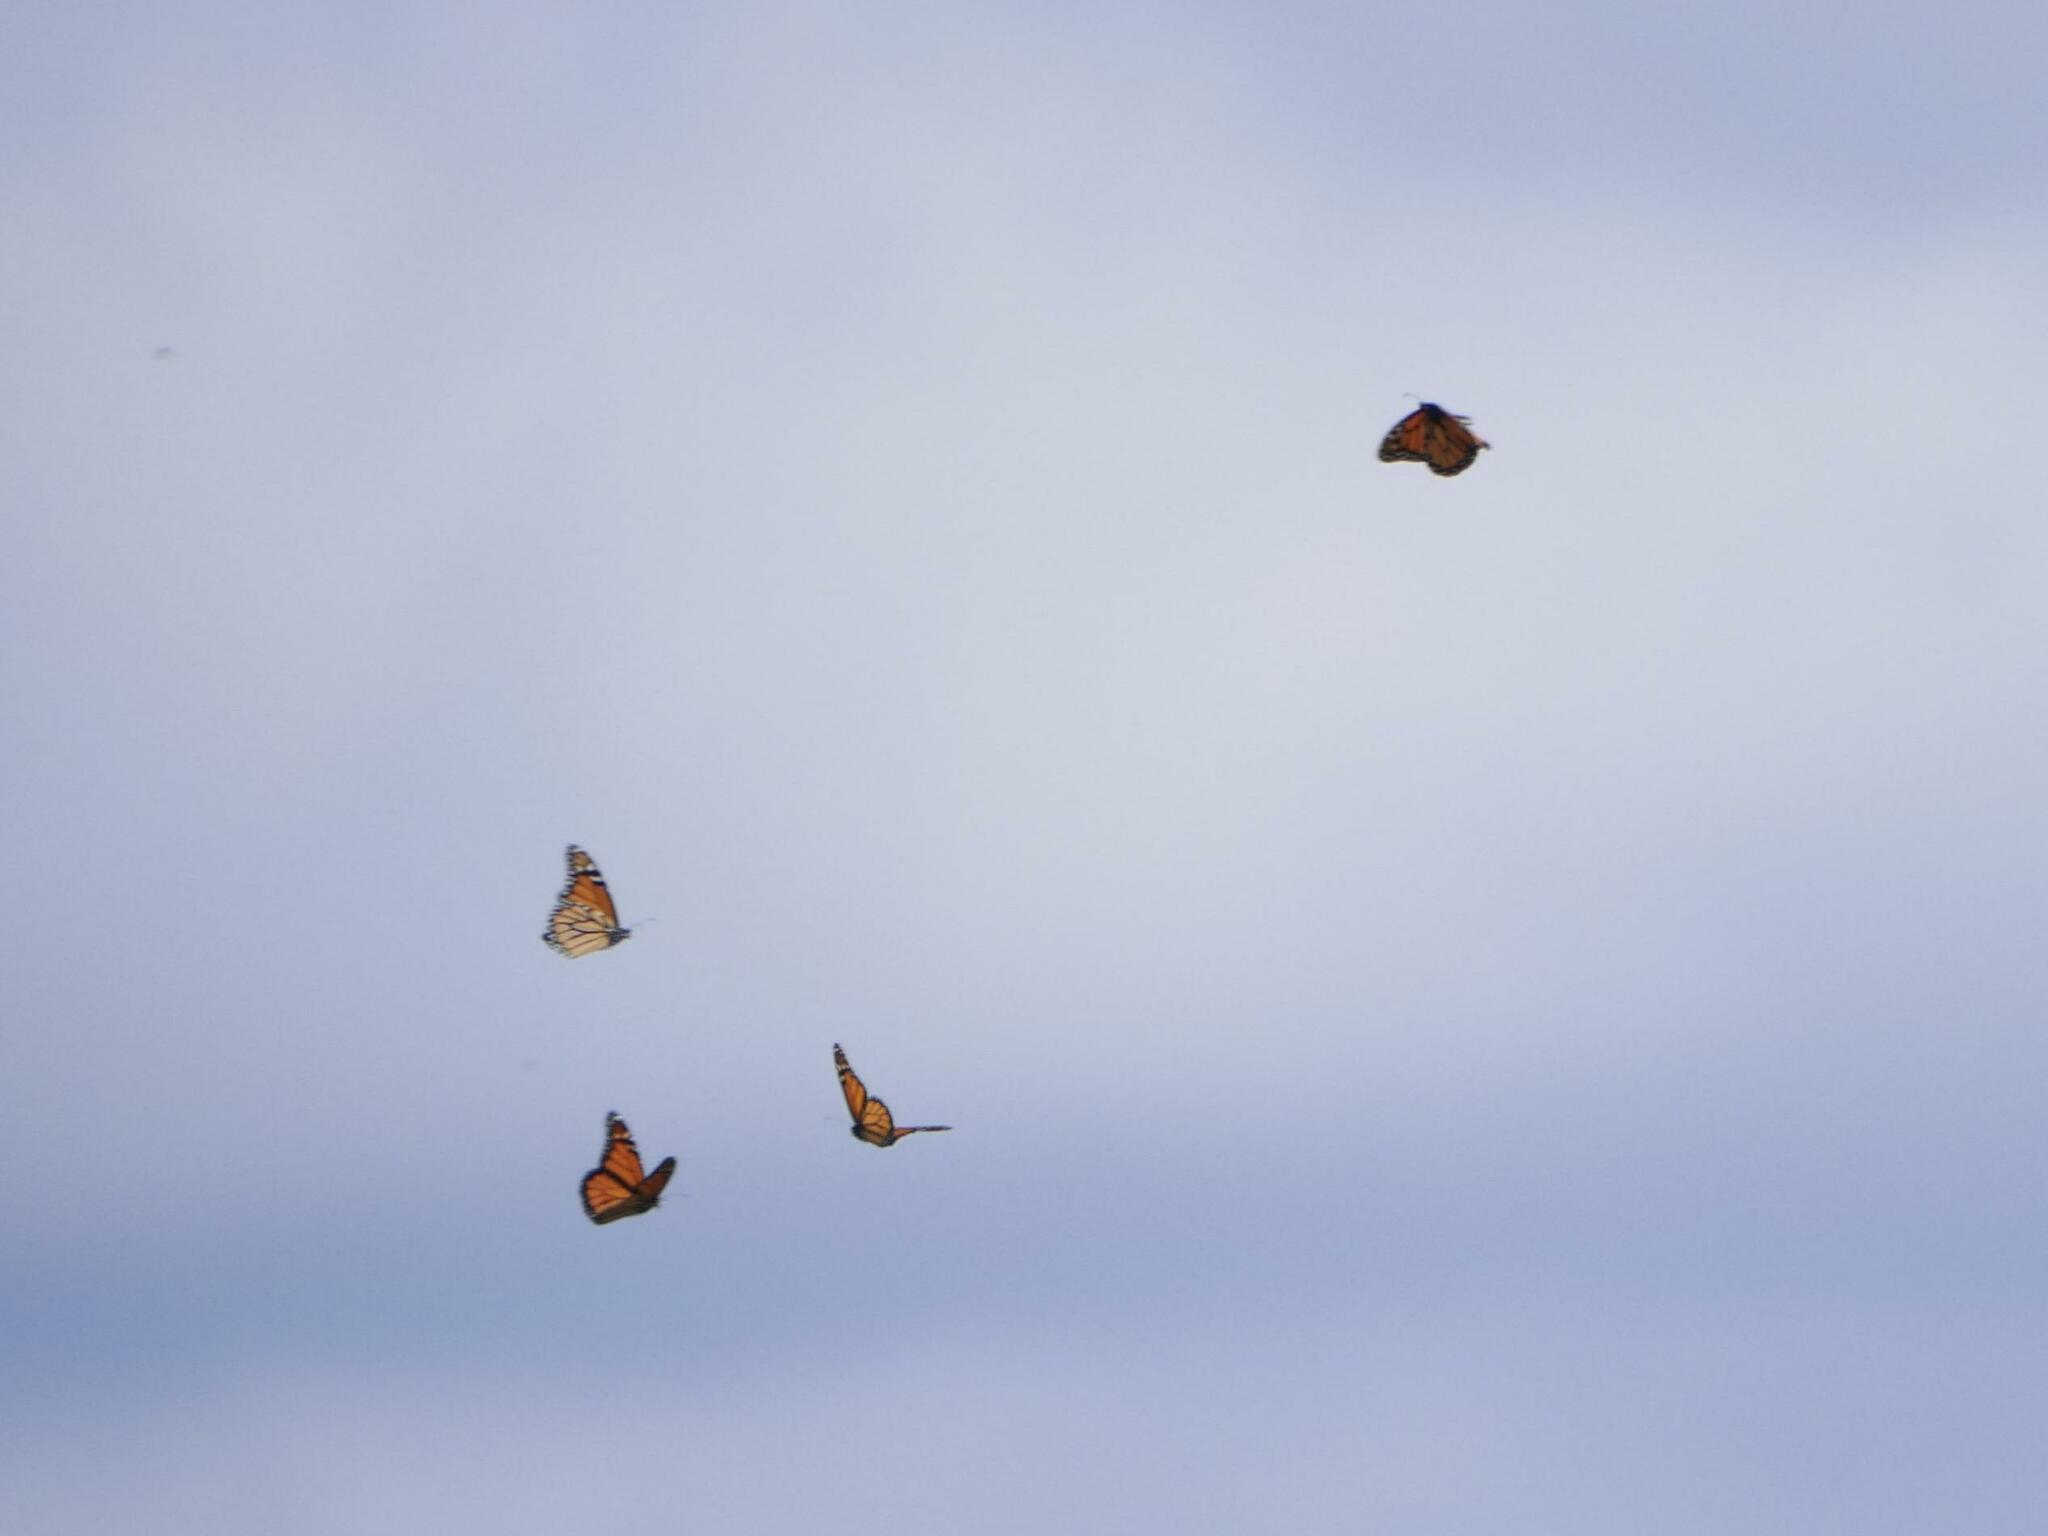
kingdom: Animalia
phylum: Arthropoda
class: Insecta
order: Lepidoptera
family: Nymphalidae
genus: Danaus
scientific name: Danaus plexippus
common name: Monarch
